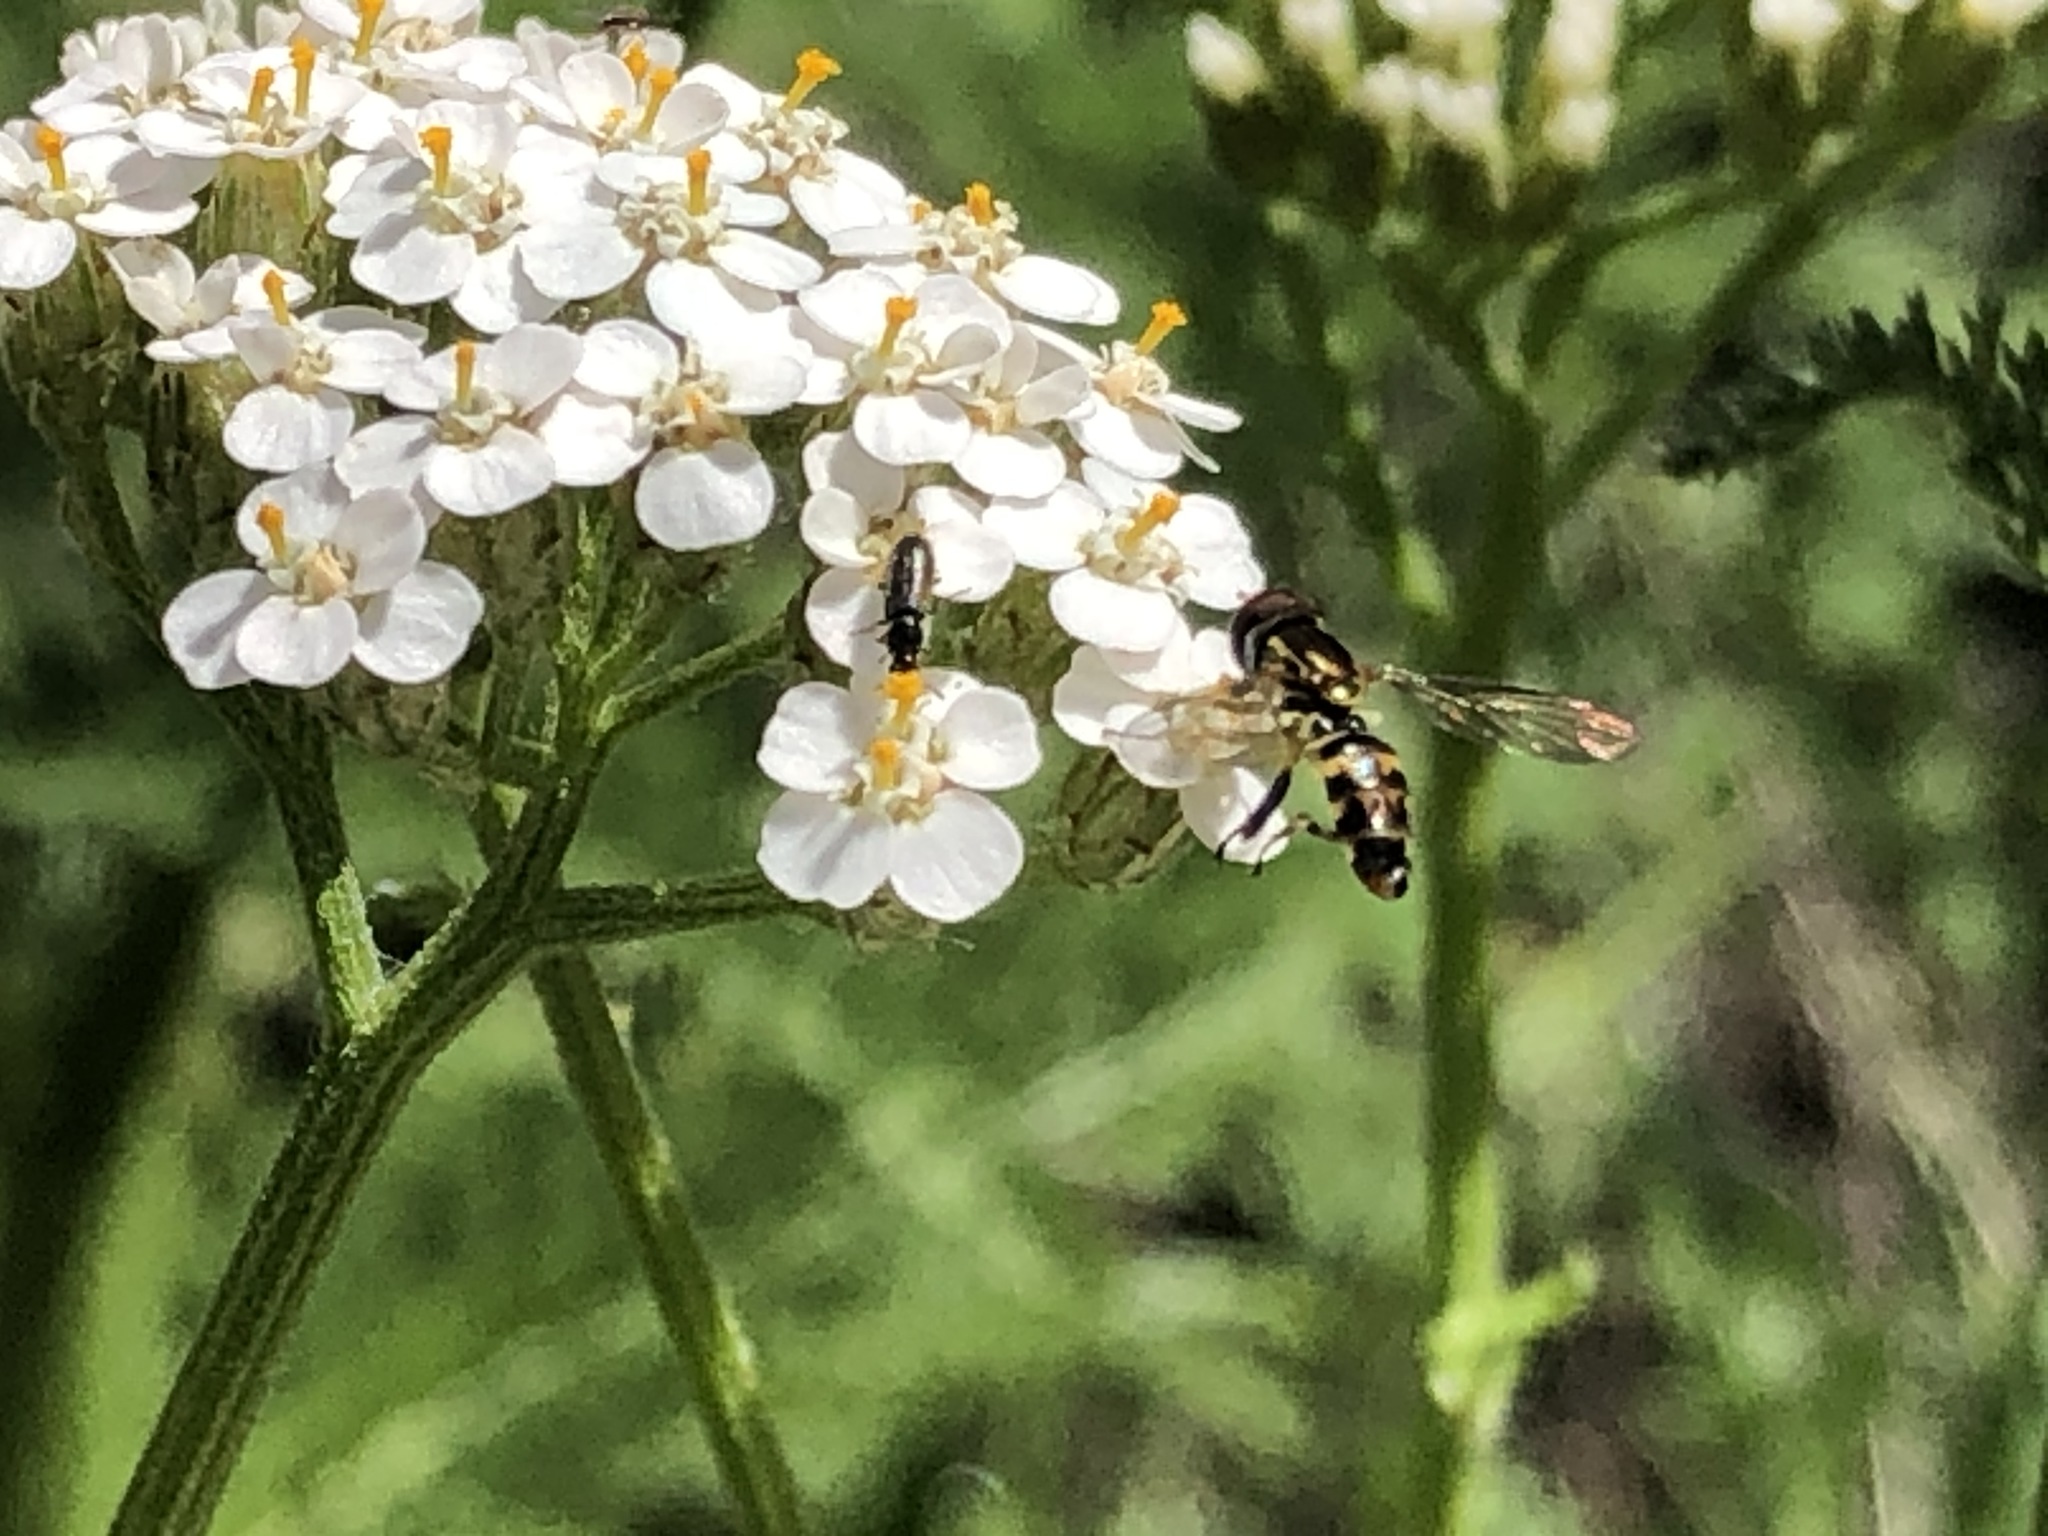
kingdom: Animalia
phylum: Arthropoda
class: Insecta
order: Diptera
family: Syrphidae
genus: Toxomerus
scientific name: Toxomerus occidentalis
